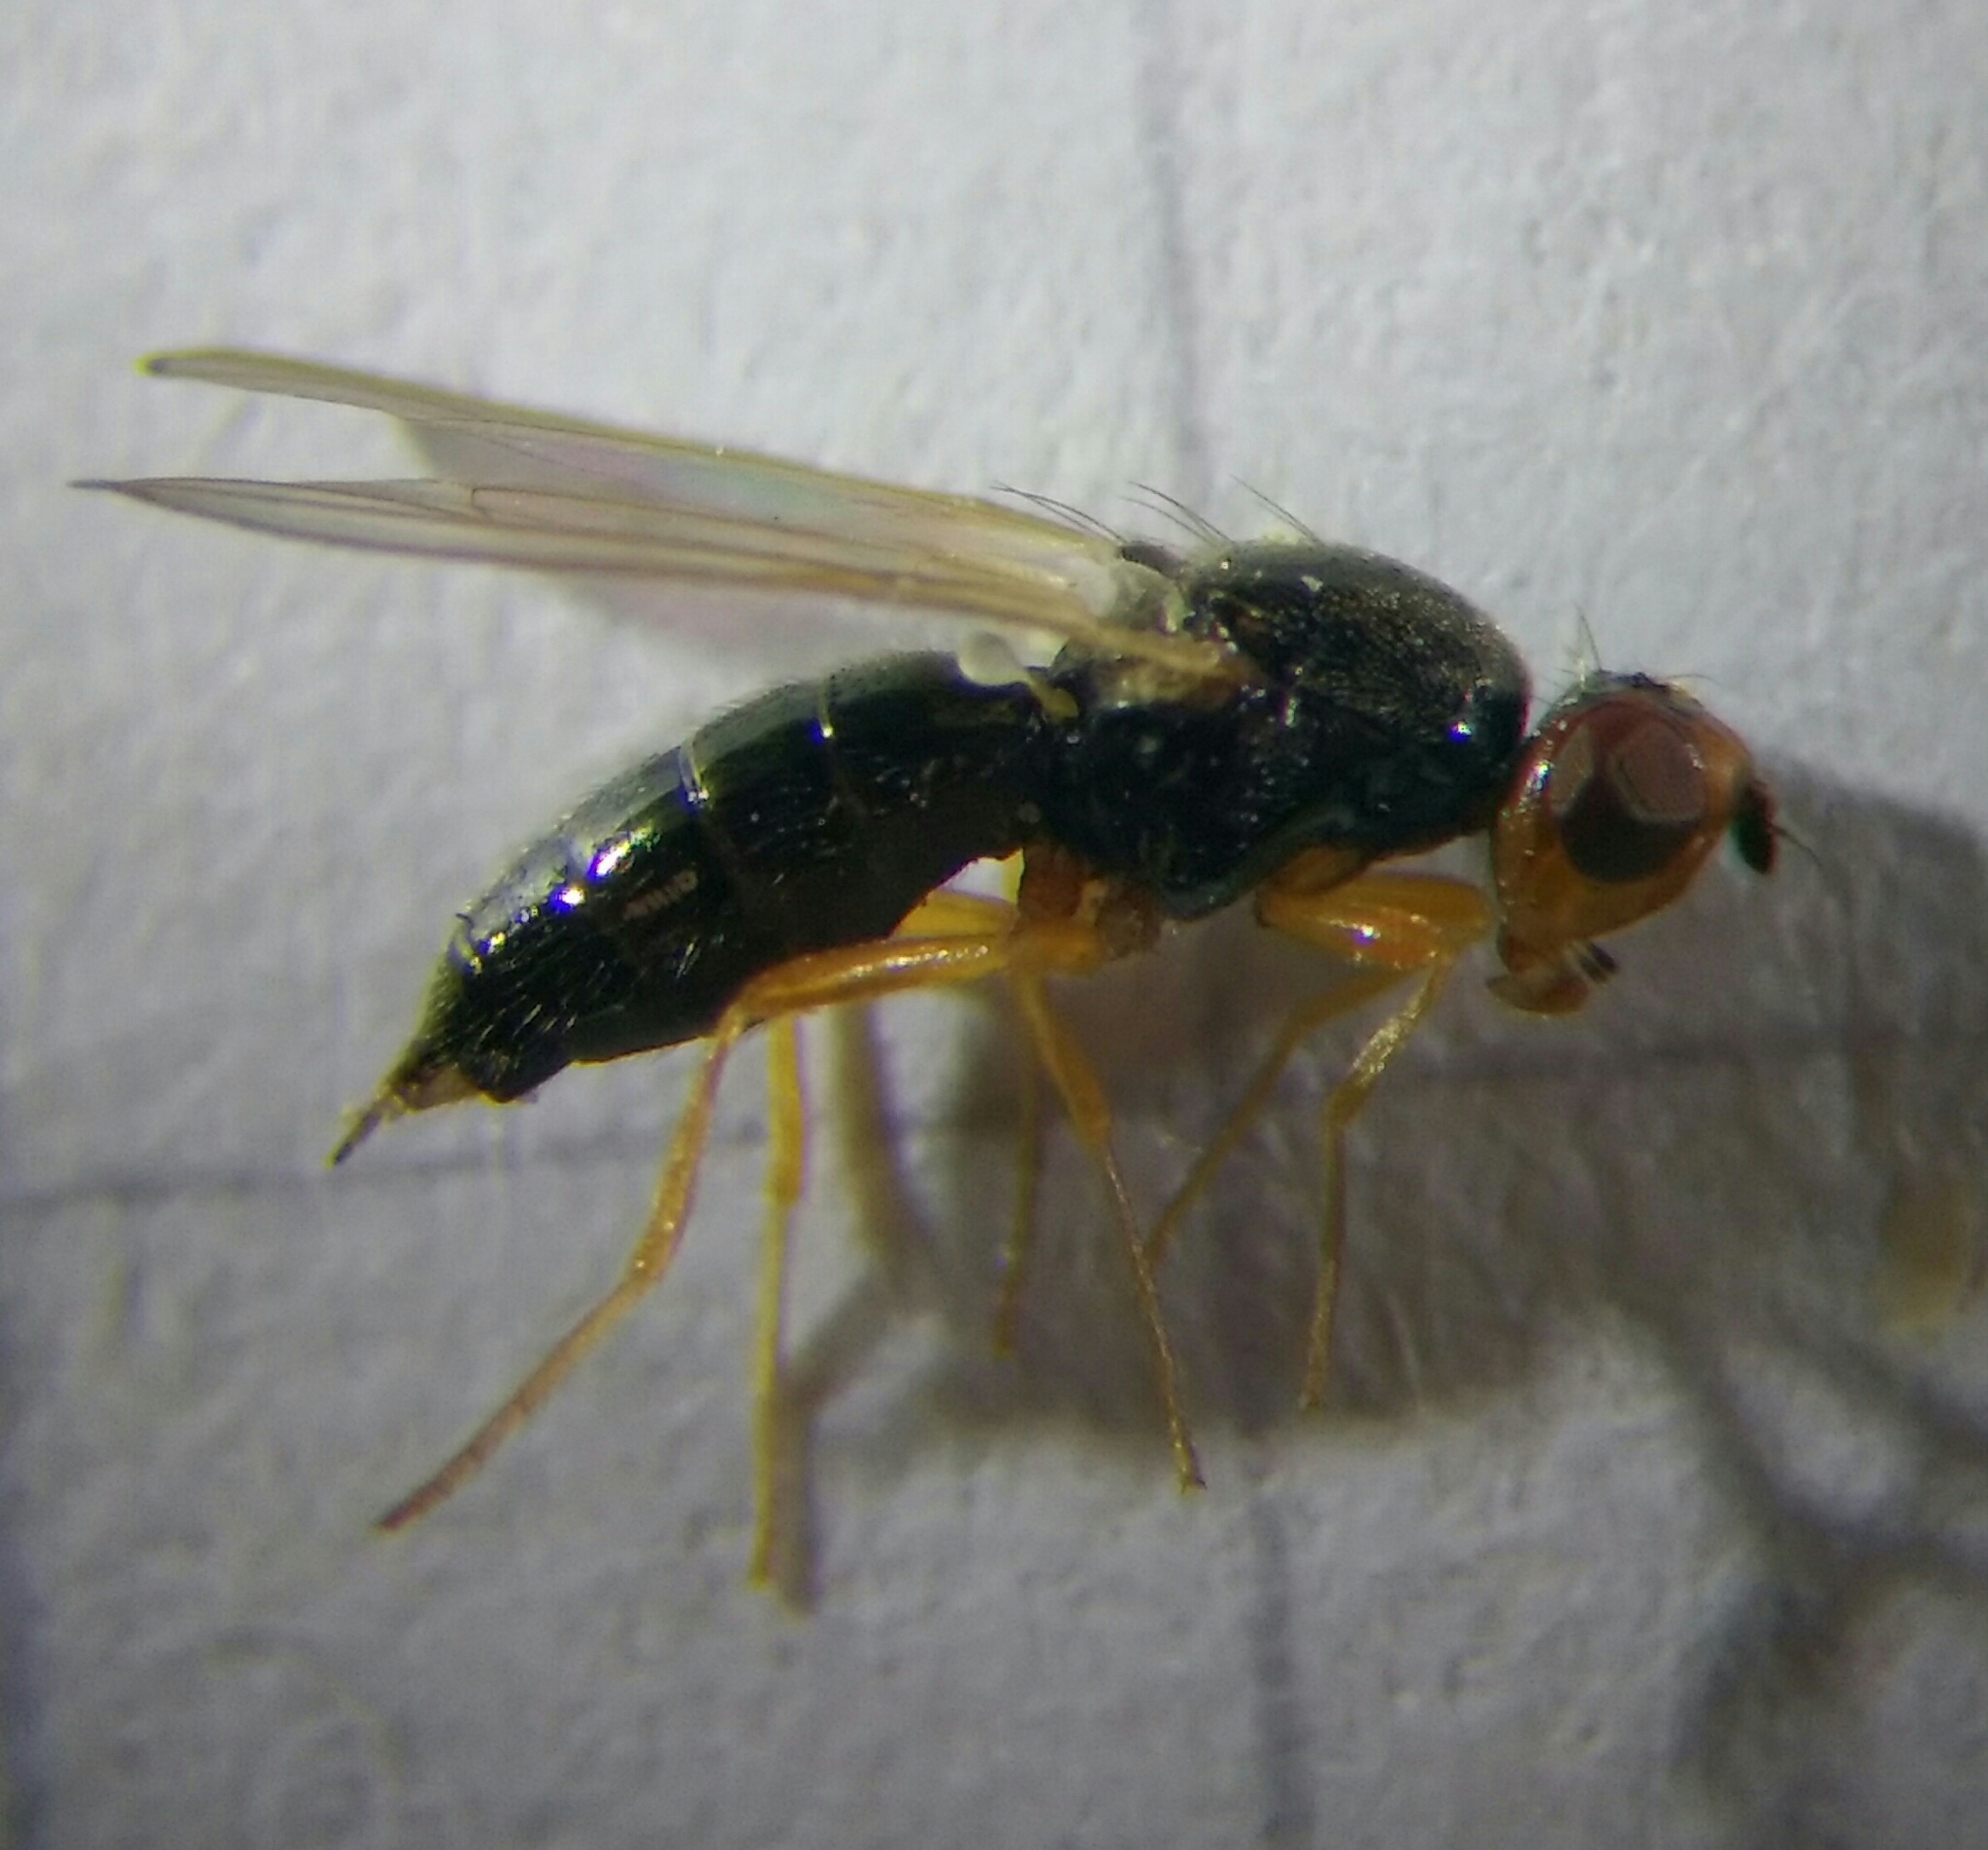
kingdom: Animalia
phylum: Arthropoda
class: Insecta
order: Diptera
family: Psilidae
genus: Psila
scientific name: Psila nigricornis
